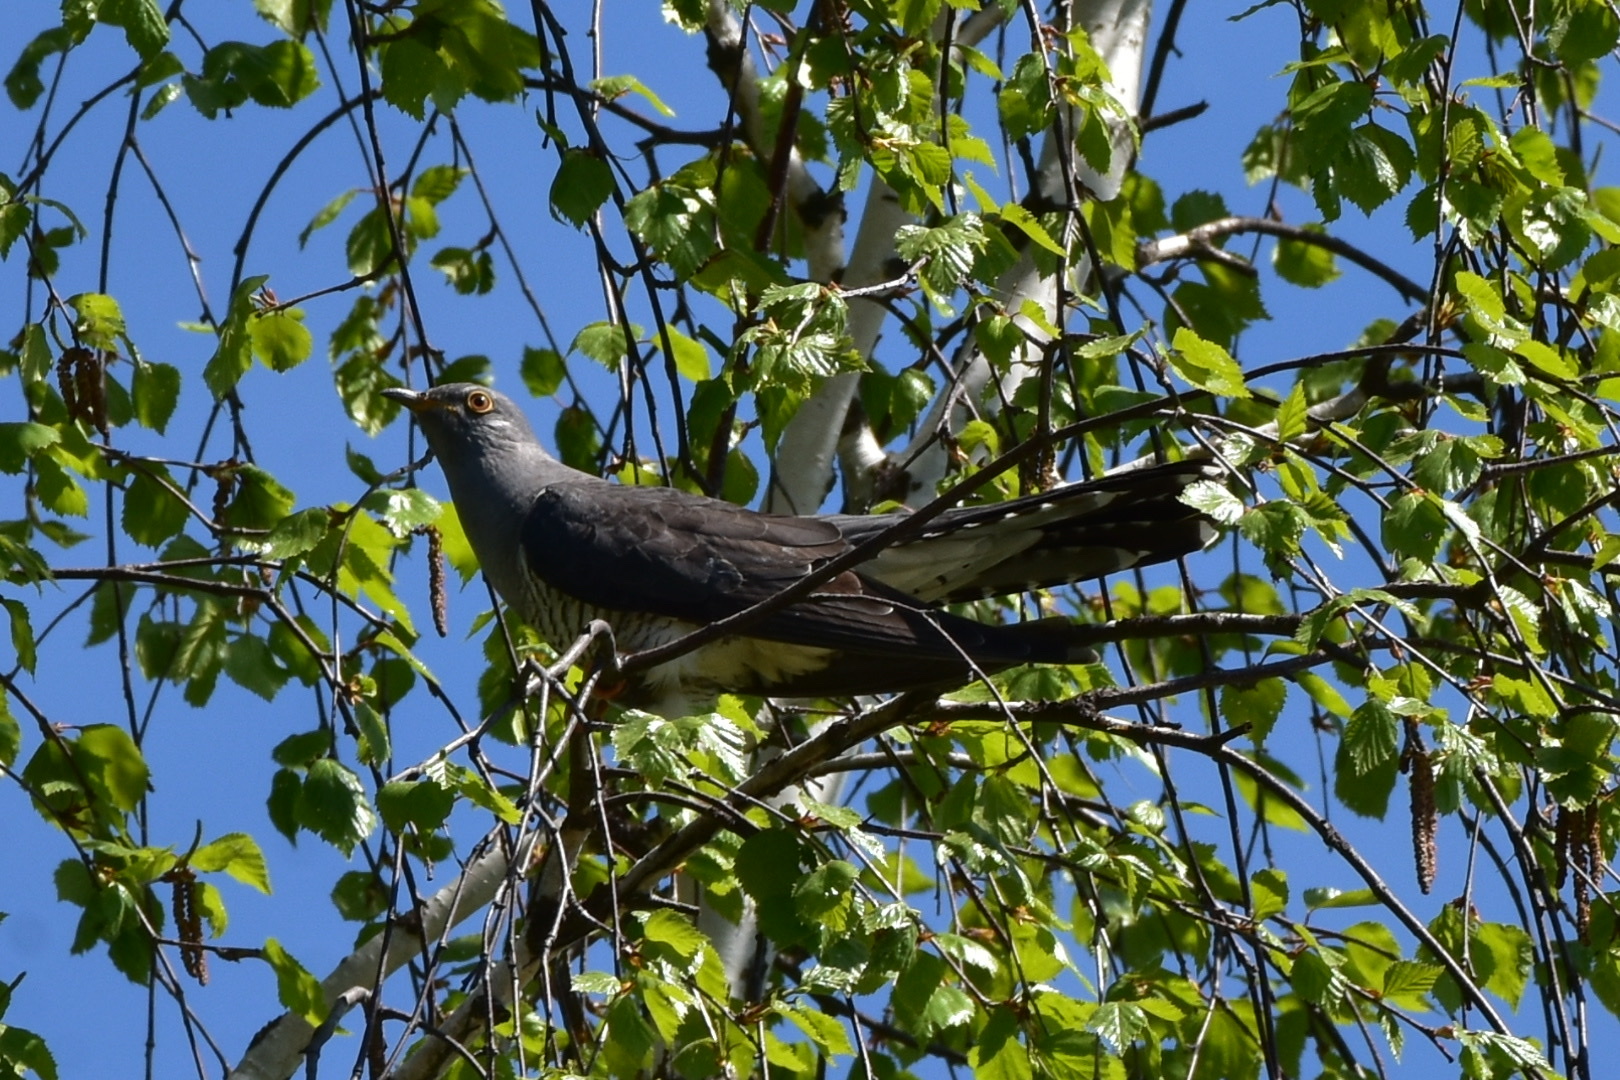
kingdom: Animalia
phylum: Chordata
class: Aves
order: Cuculiformes
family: Cuculidae
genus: Cuculus
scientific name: Cuculus canorus
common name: Common cuckoo
